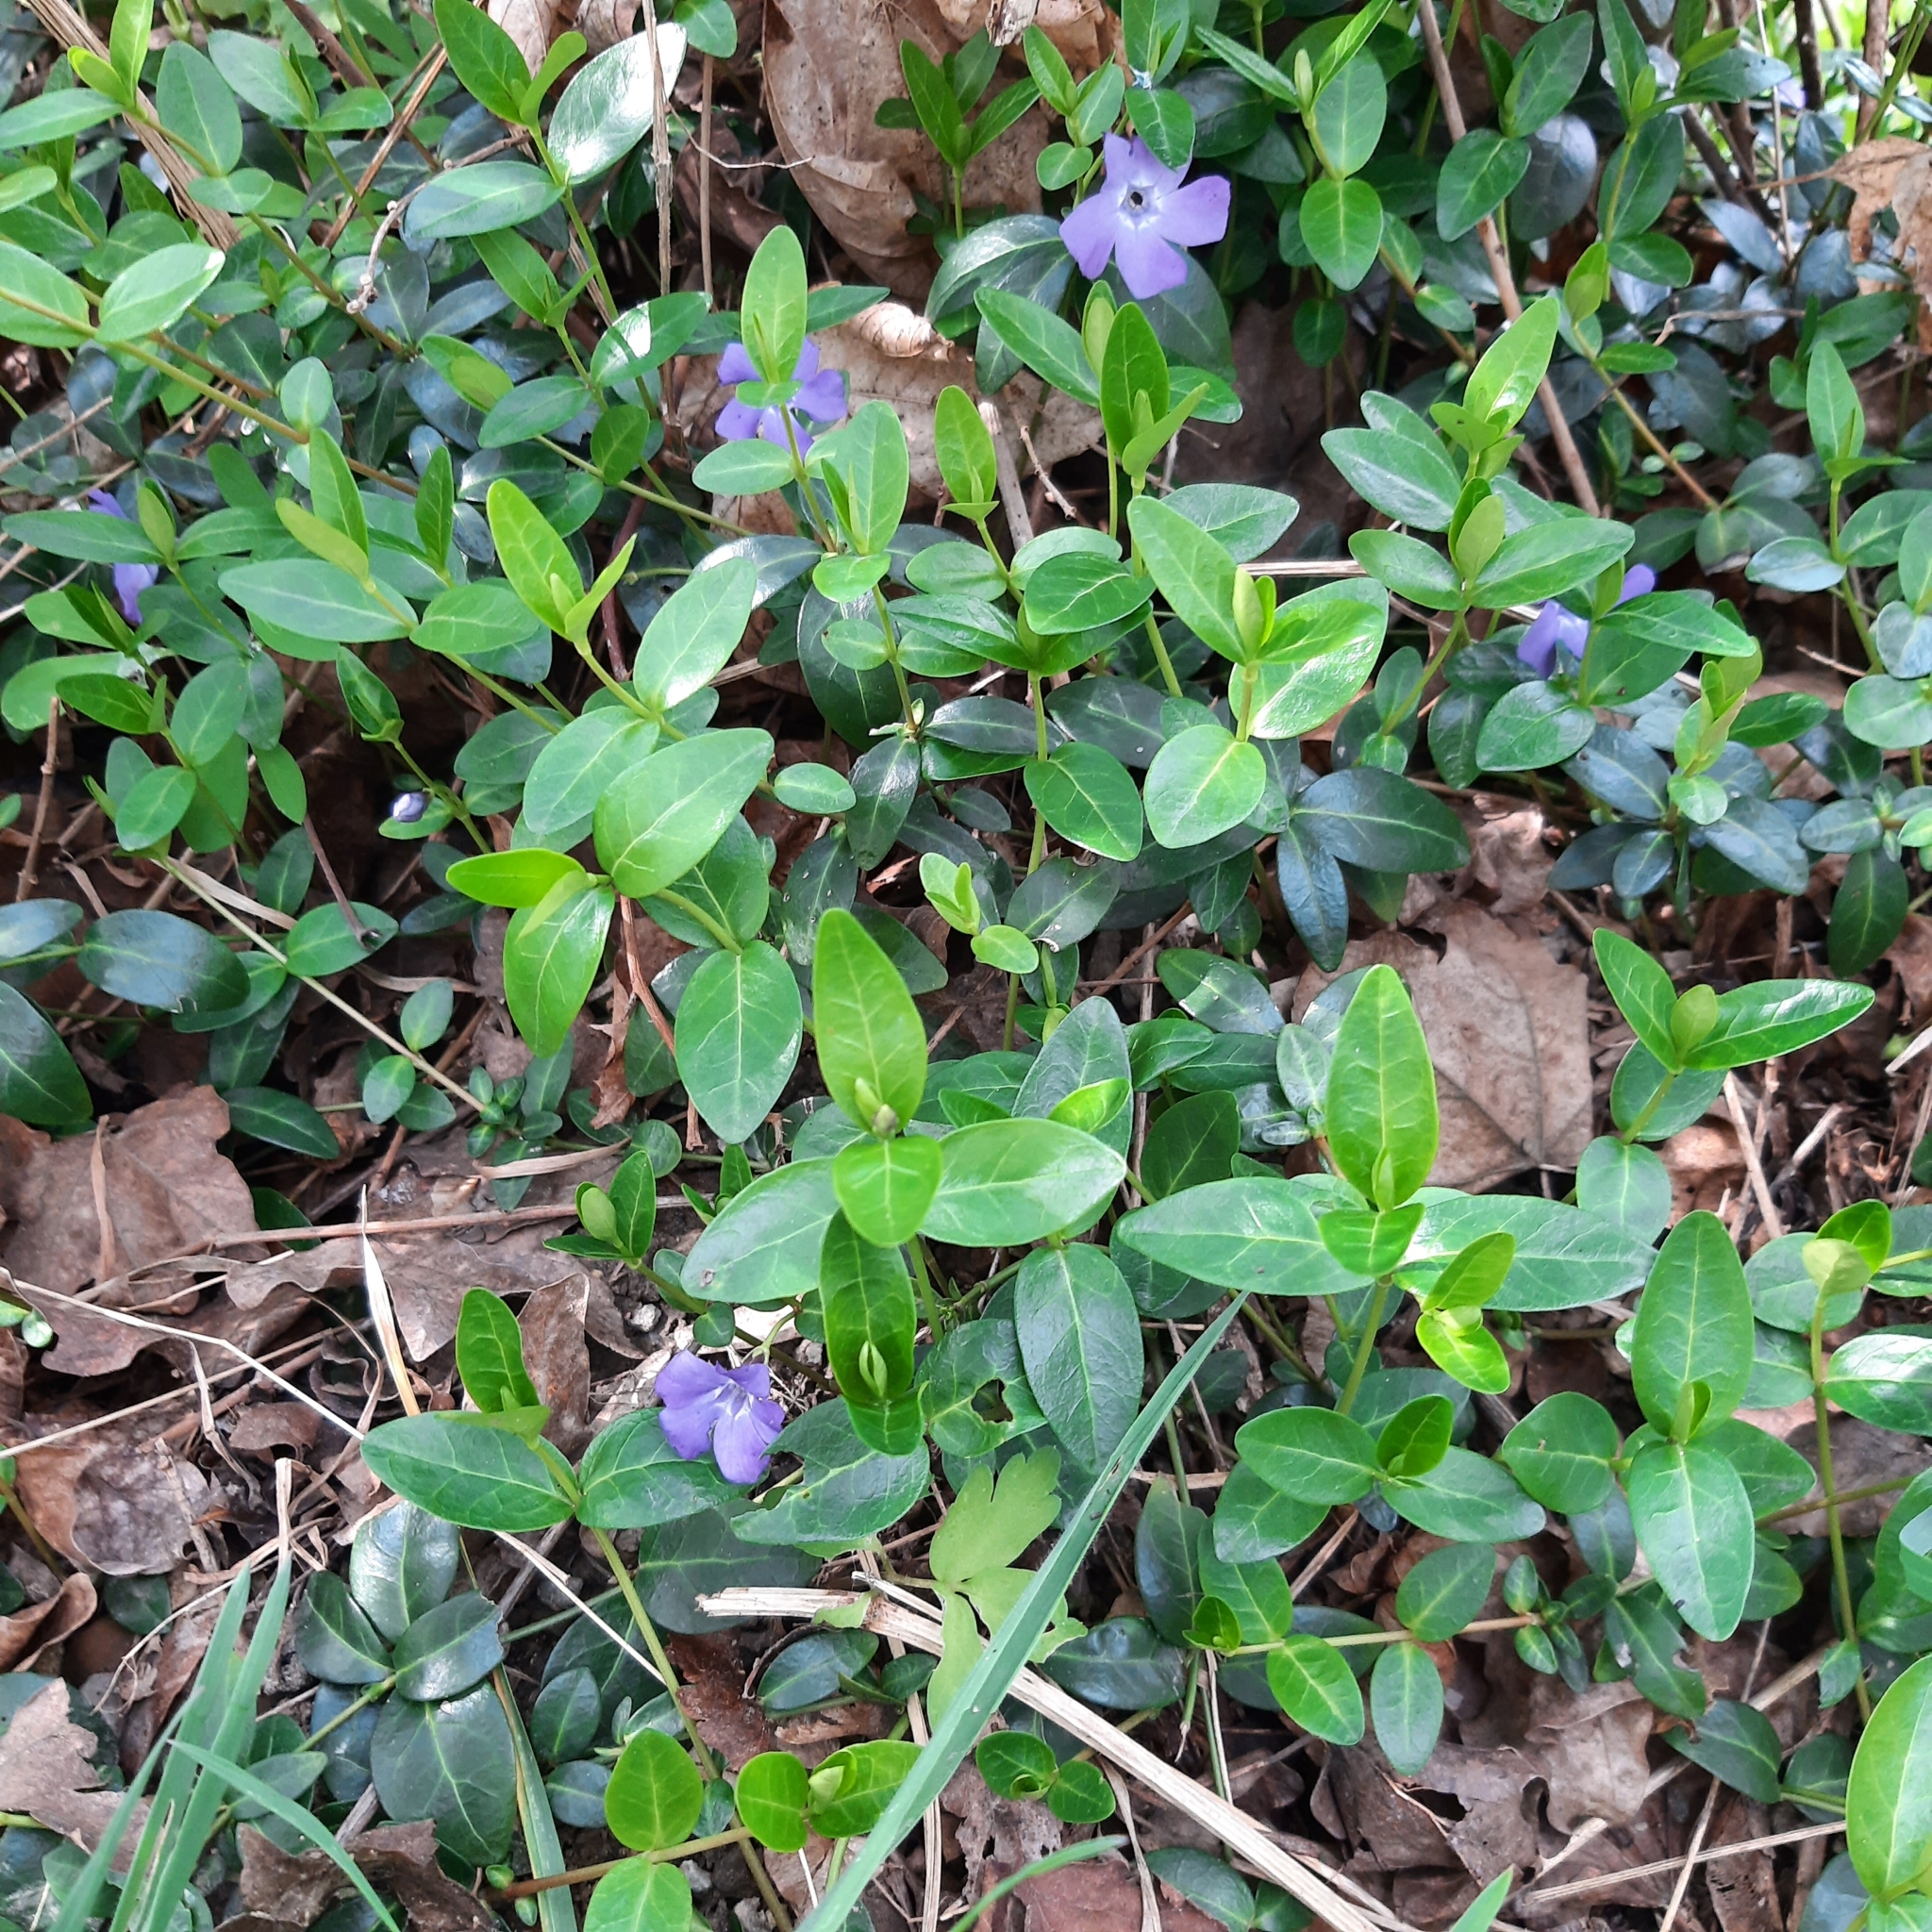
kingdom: Plantae
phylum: Tracheophyta
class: Magnoliopsida
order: Gentianales
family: Apocynaceae
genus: Vinca
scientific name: Vinca minor
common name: Lesser periwinkle
